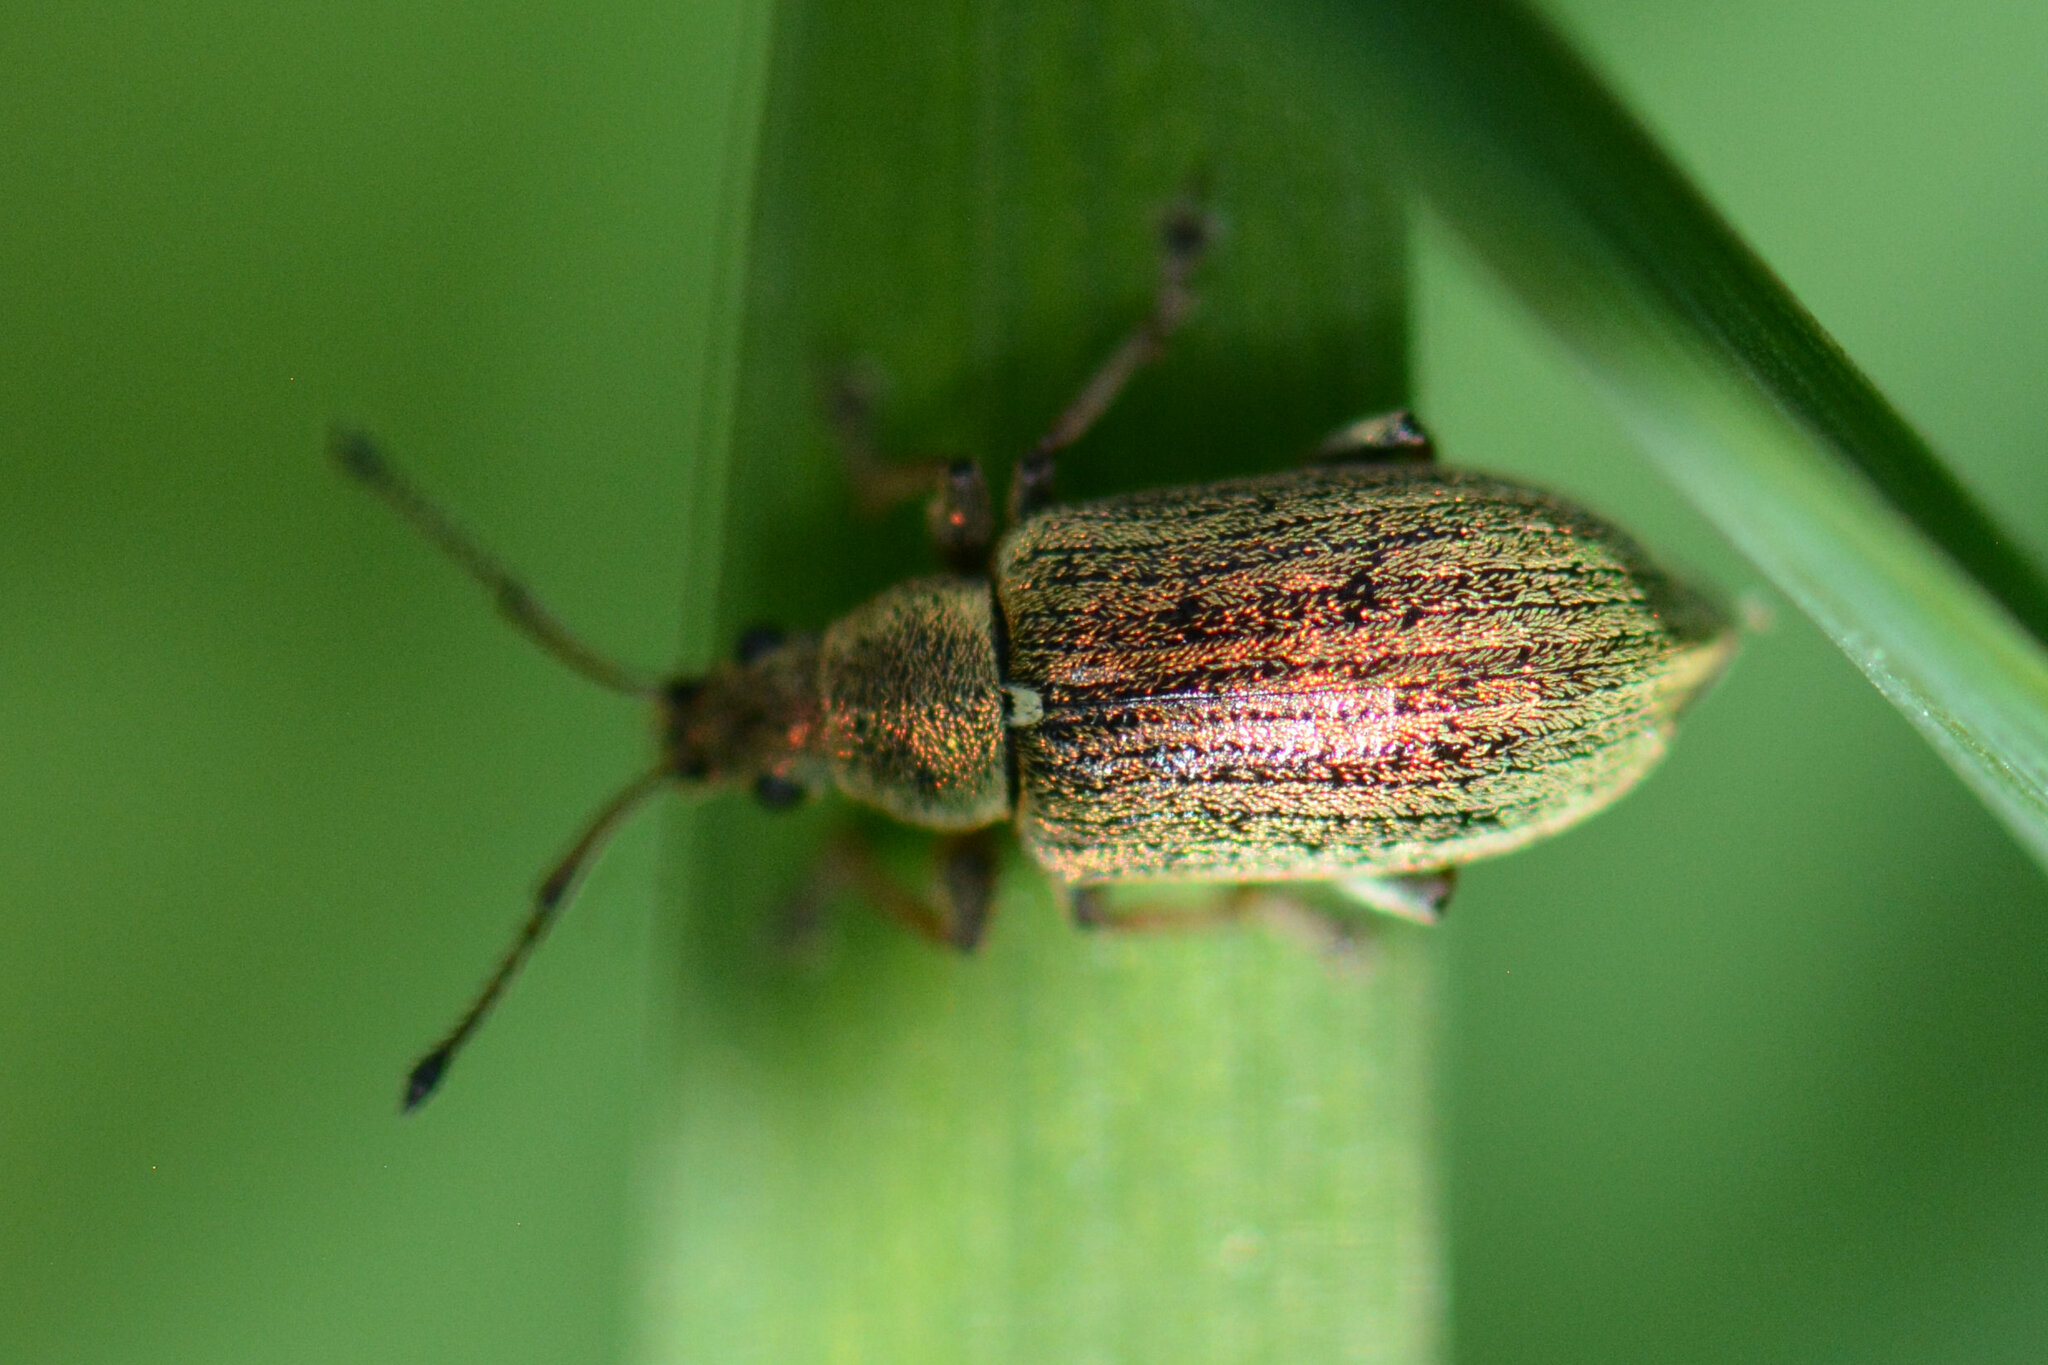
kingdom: Animalia
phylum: Arthropoda
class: Insecta
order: Coleoptera
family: Curculionidae
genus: Phyllobius
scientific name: Phyllobius pyri
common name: Common leaf weevil
